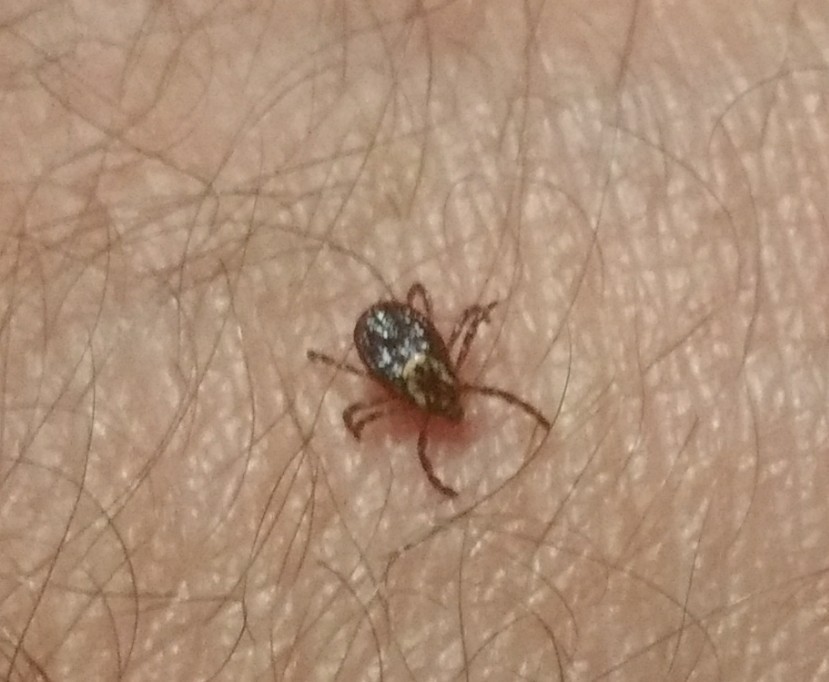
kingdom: Animalia
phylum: Arthropoda
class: Arachnida
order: Ixodida
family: Ixodidae
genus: Dermacentor
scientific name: Dermacentor variabilis
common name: American dog tick
